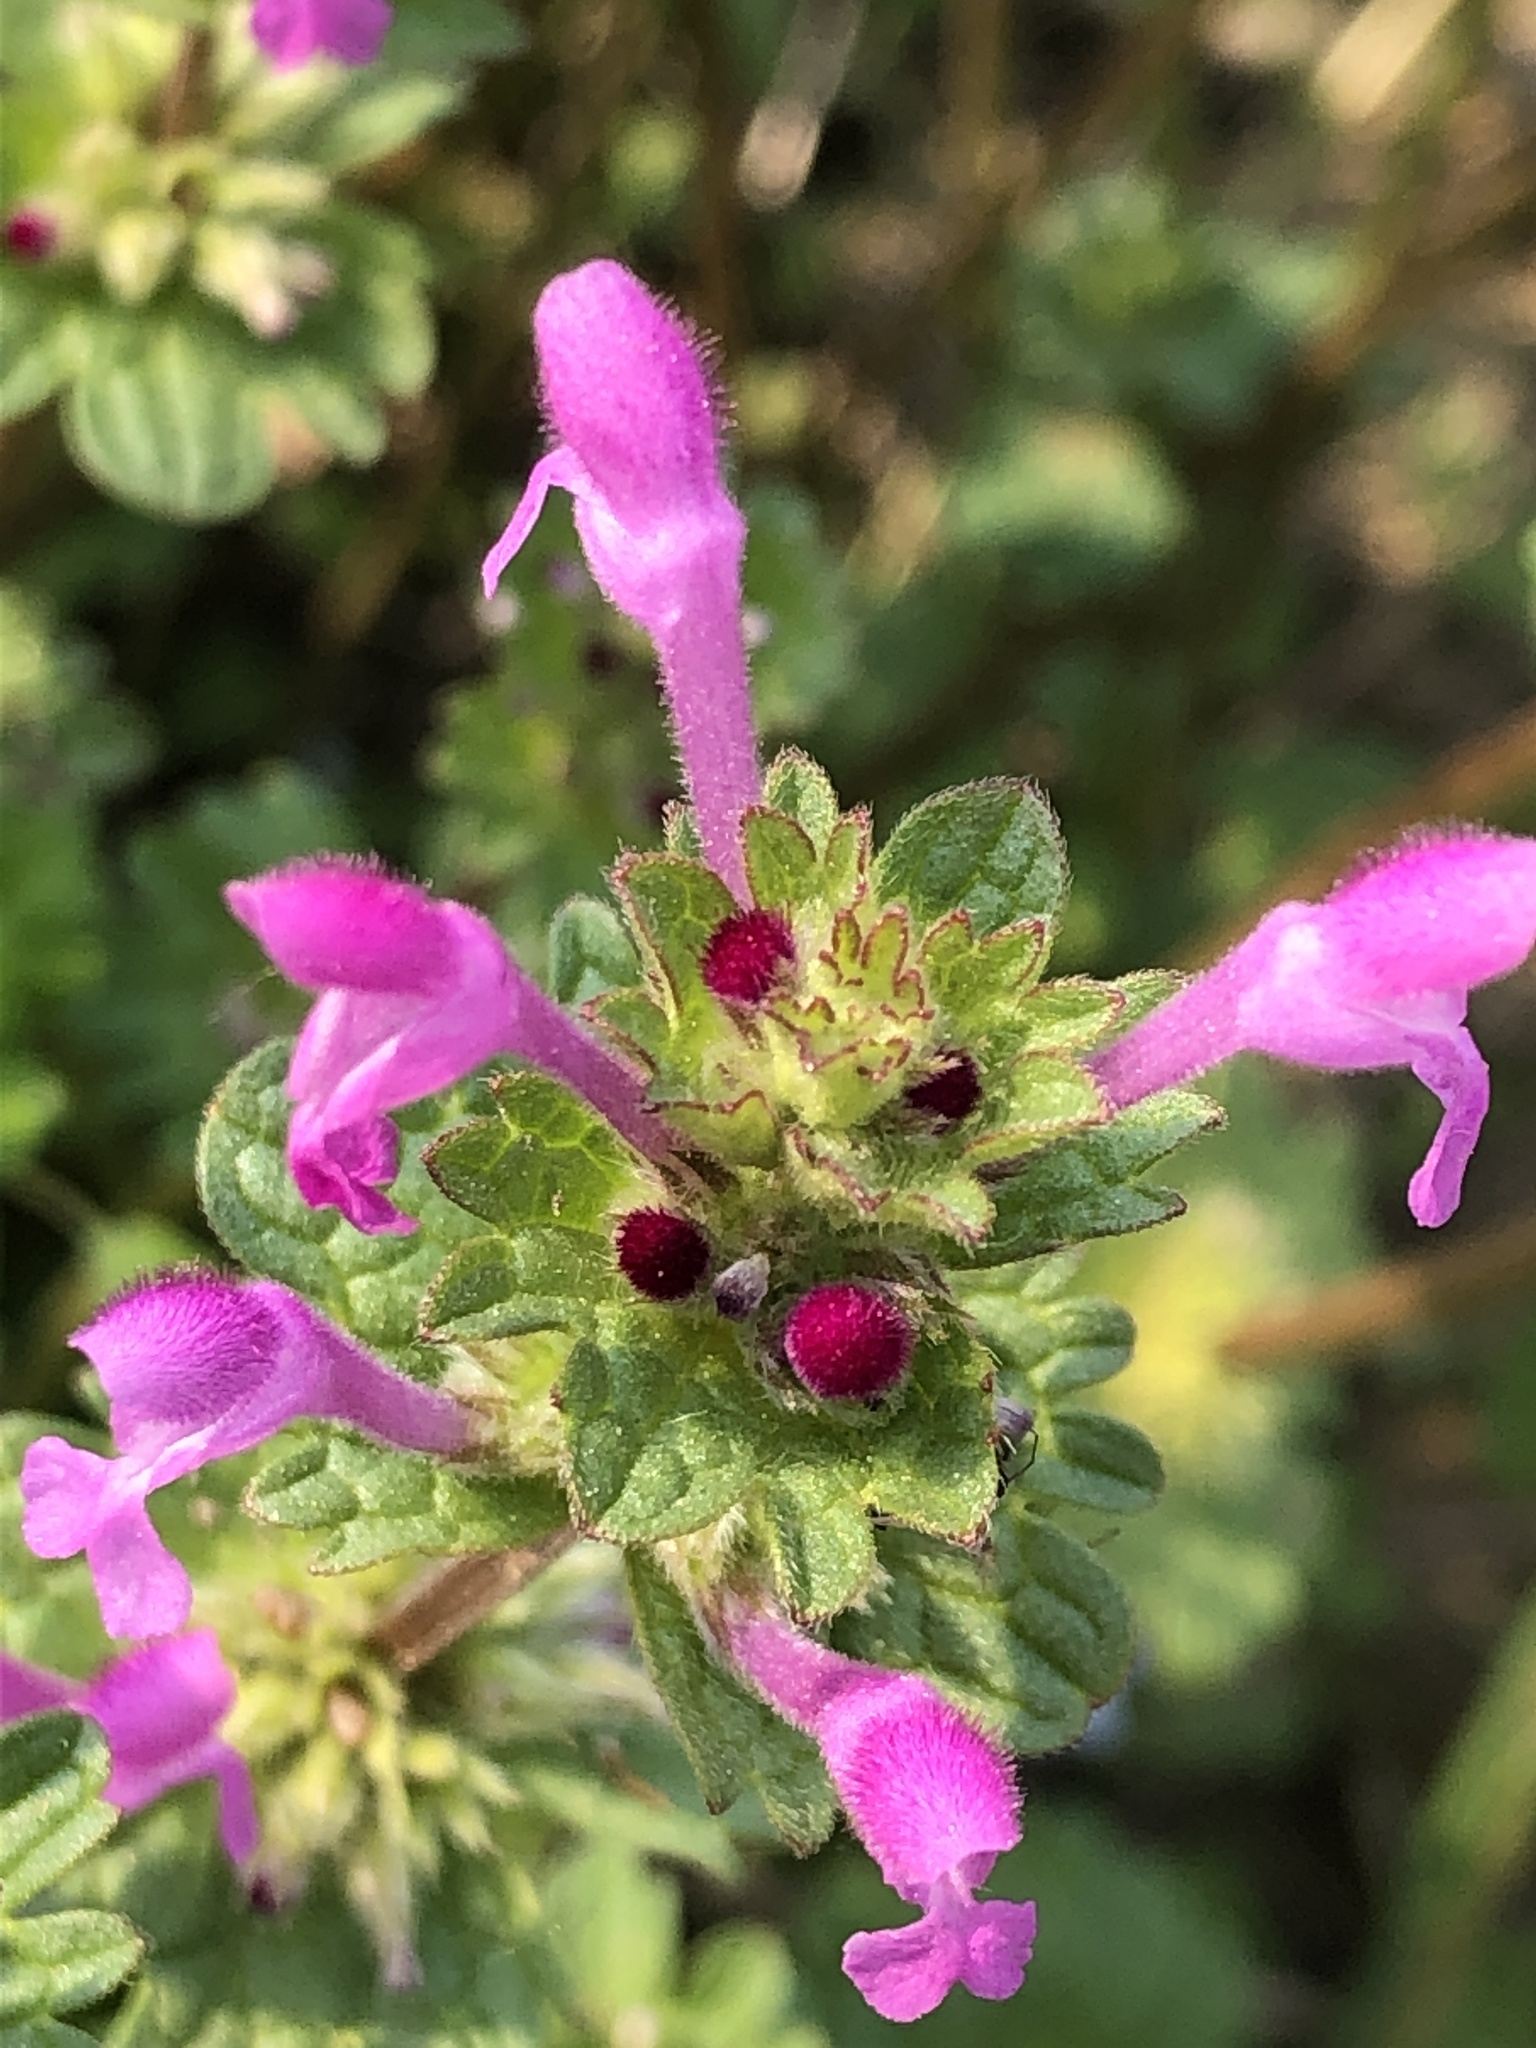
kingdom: Plantae
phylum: Tracheophyta
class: Magnoliopsida
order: Lamiales
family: Lamiaceae
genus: Lamium
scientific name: Lamium amplexicaule
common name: Henbit dead-nettle
